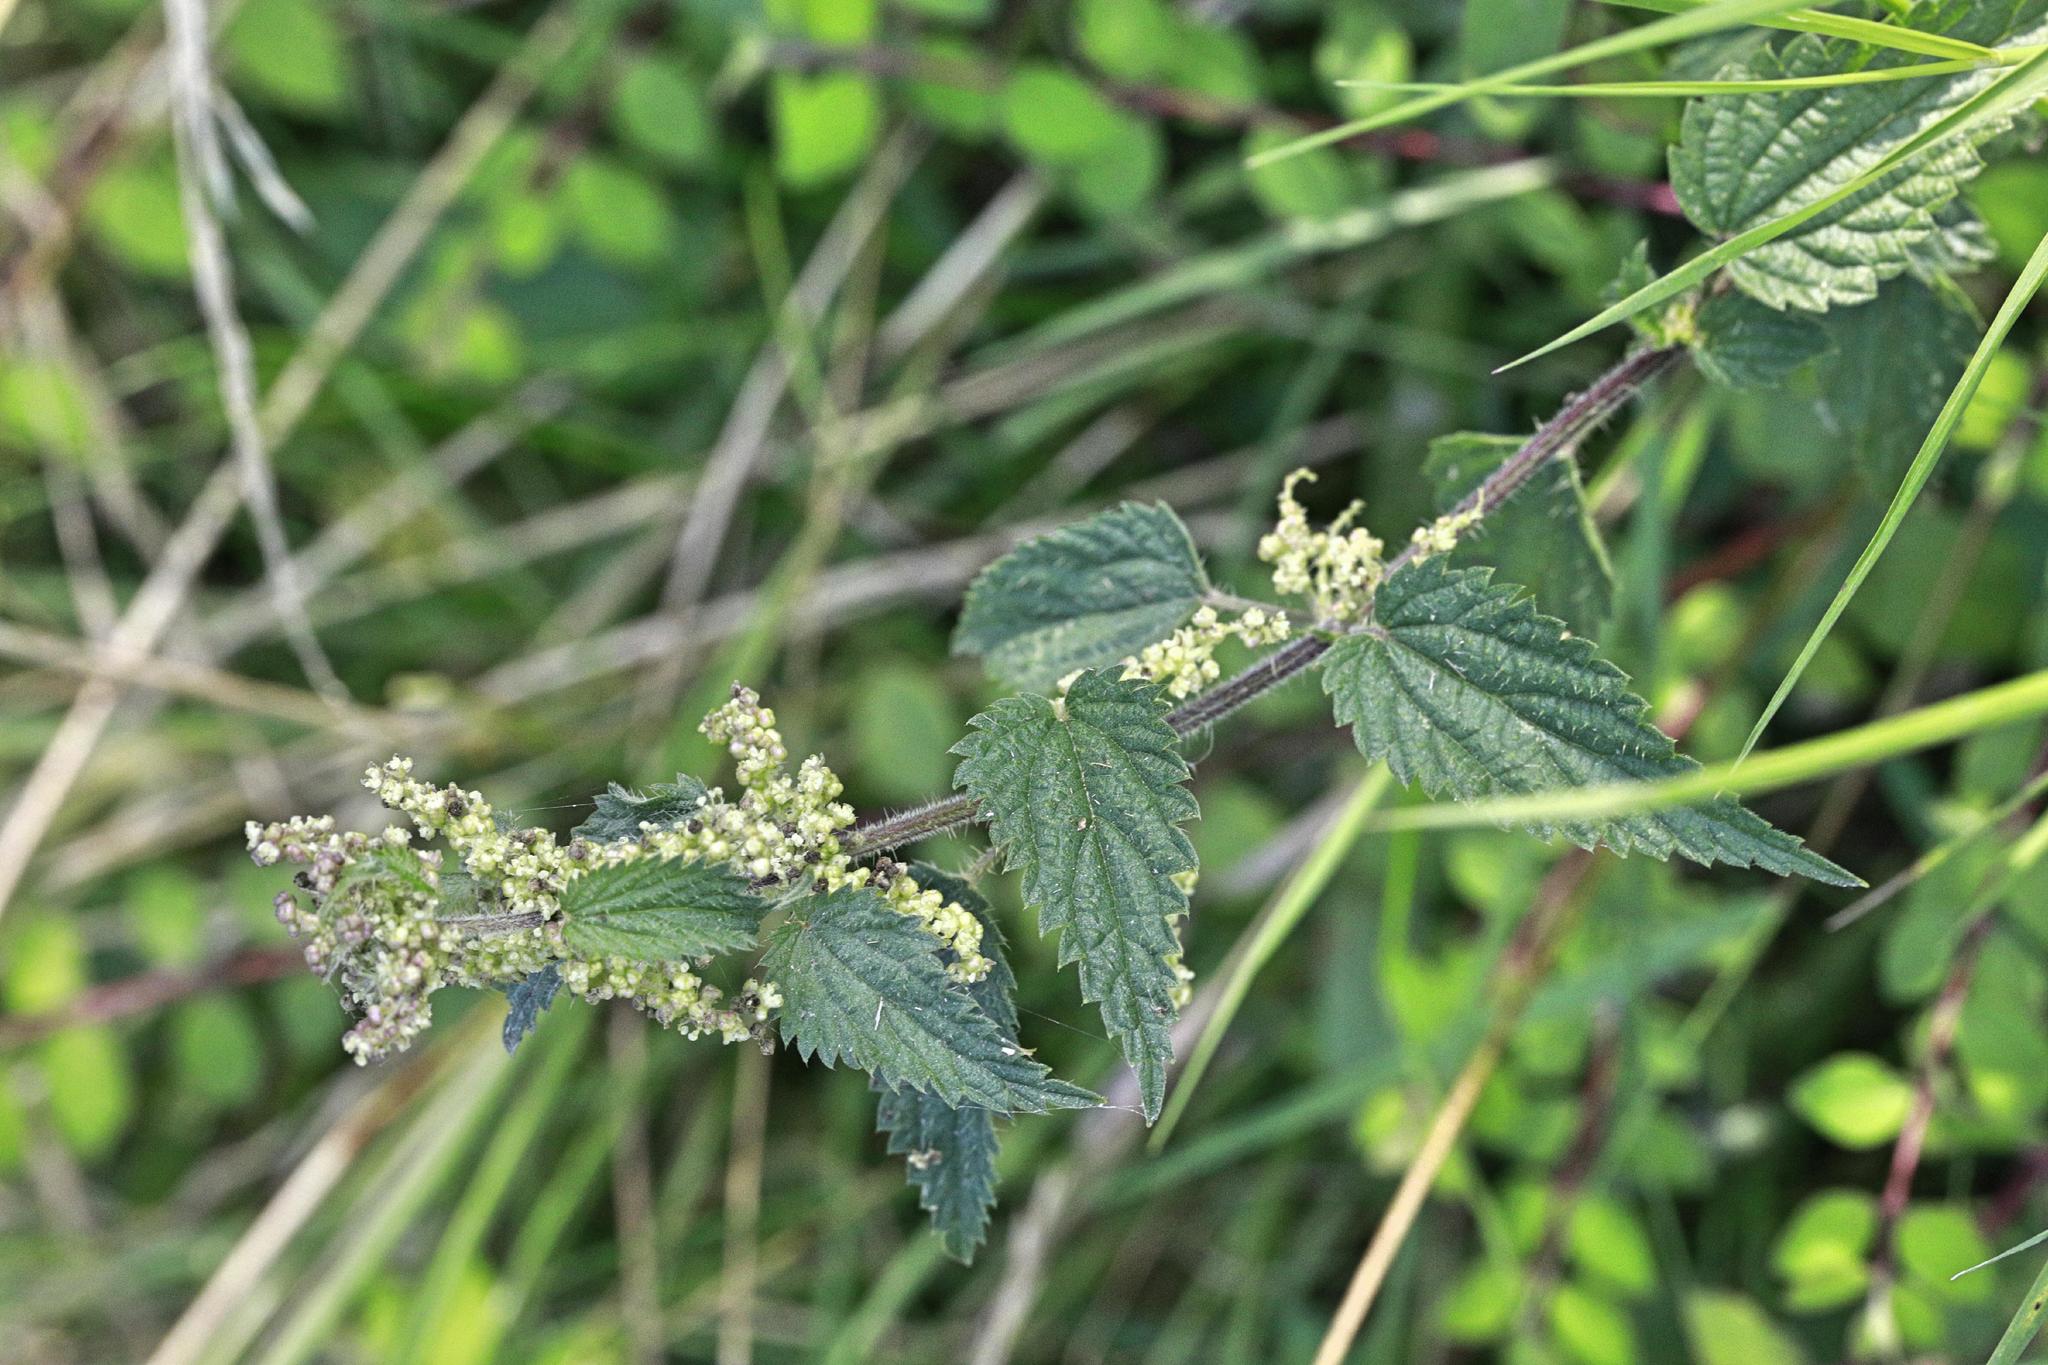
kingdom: Plantae
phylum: Tracheophyta
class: Magnoliopsida
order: Rosales
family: Urticaceae
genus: Urtica
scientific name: Urtica dioica
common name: Common nettle
